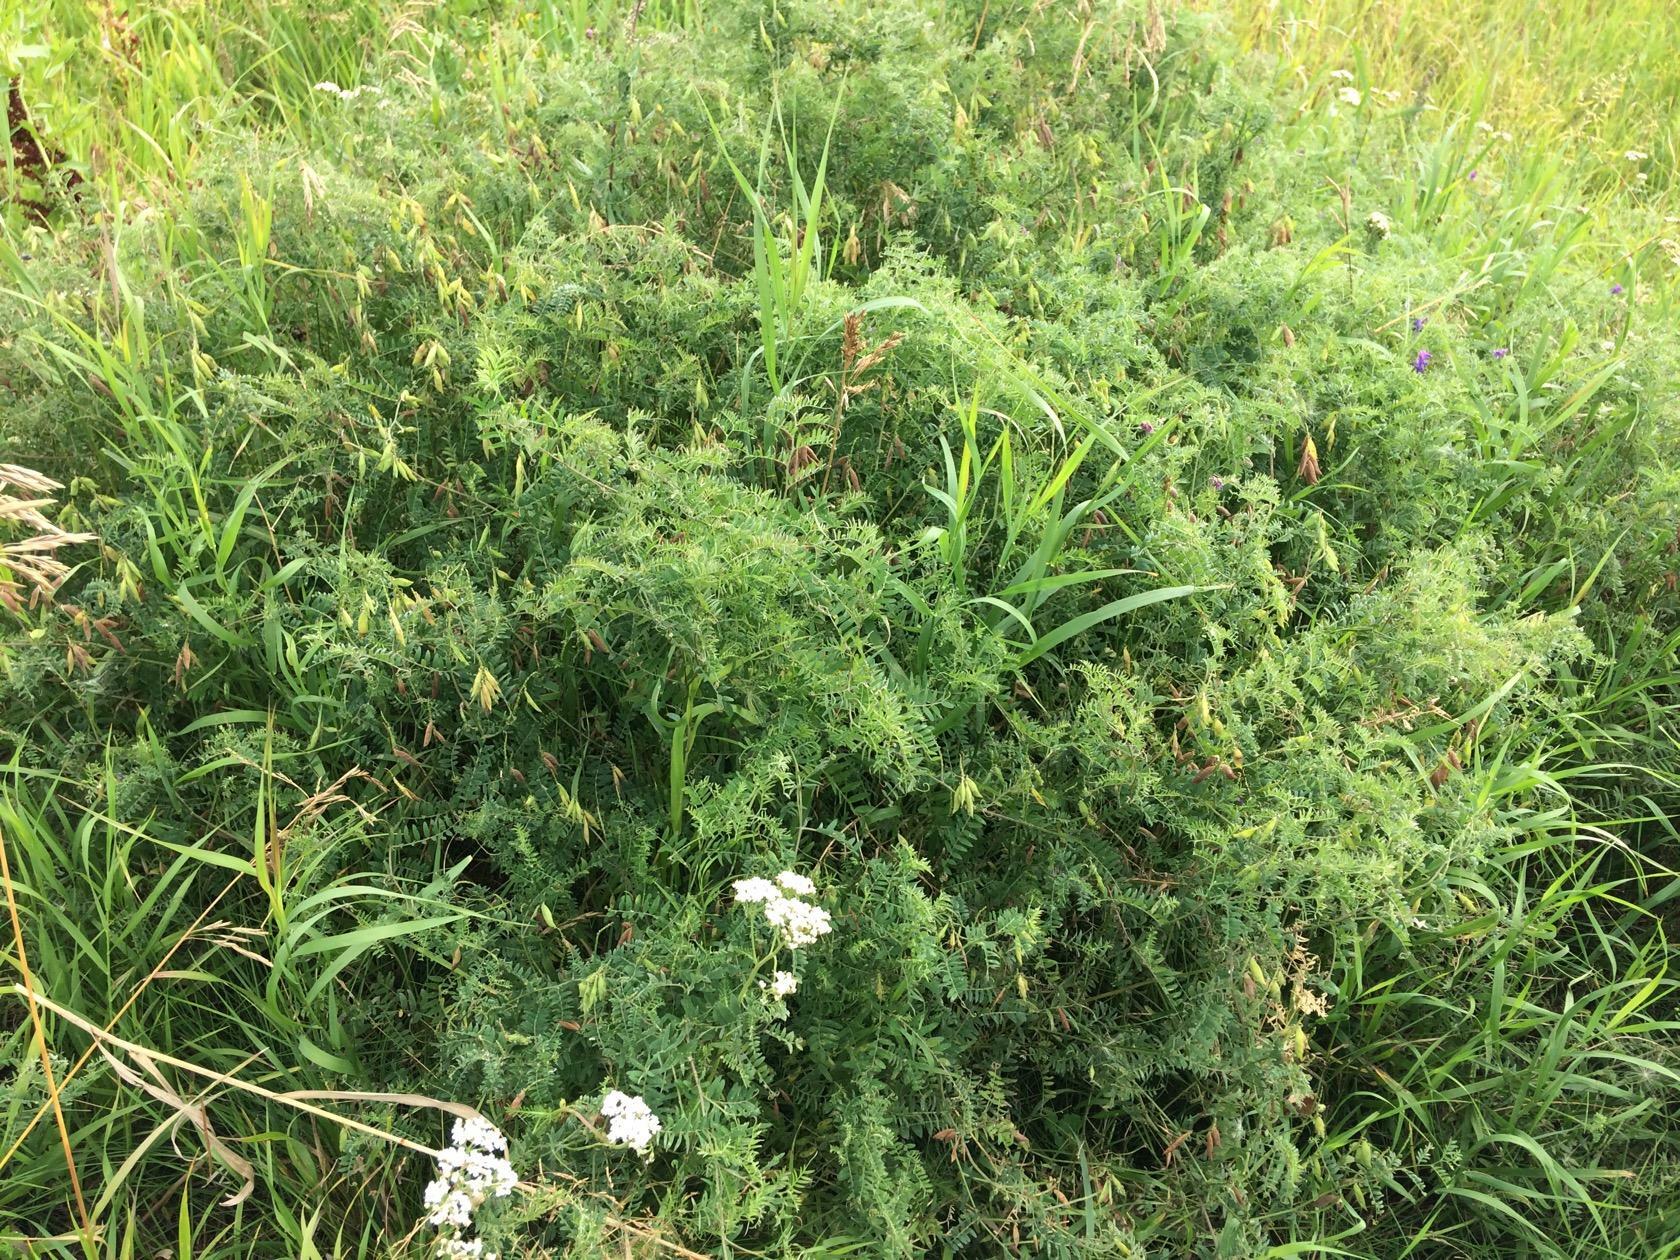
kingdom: Plantae
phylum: Tracheophyta
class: Magnoliopsida
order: Fabales
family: Fabaceae
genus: Vicia
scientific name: Vicia cracca
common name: Bird vetch
